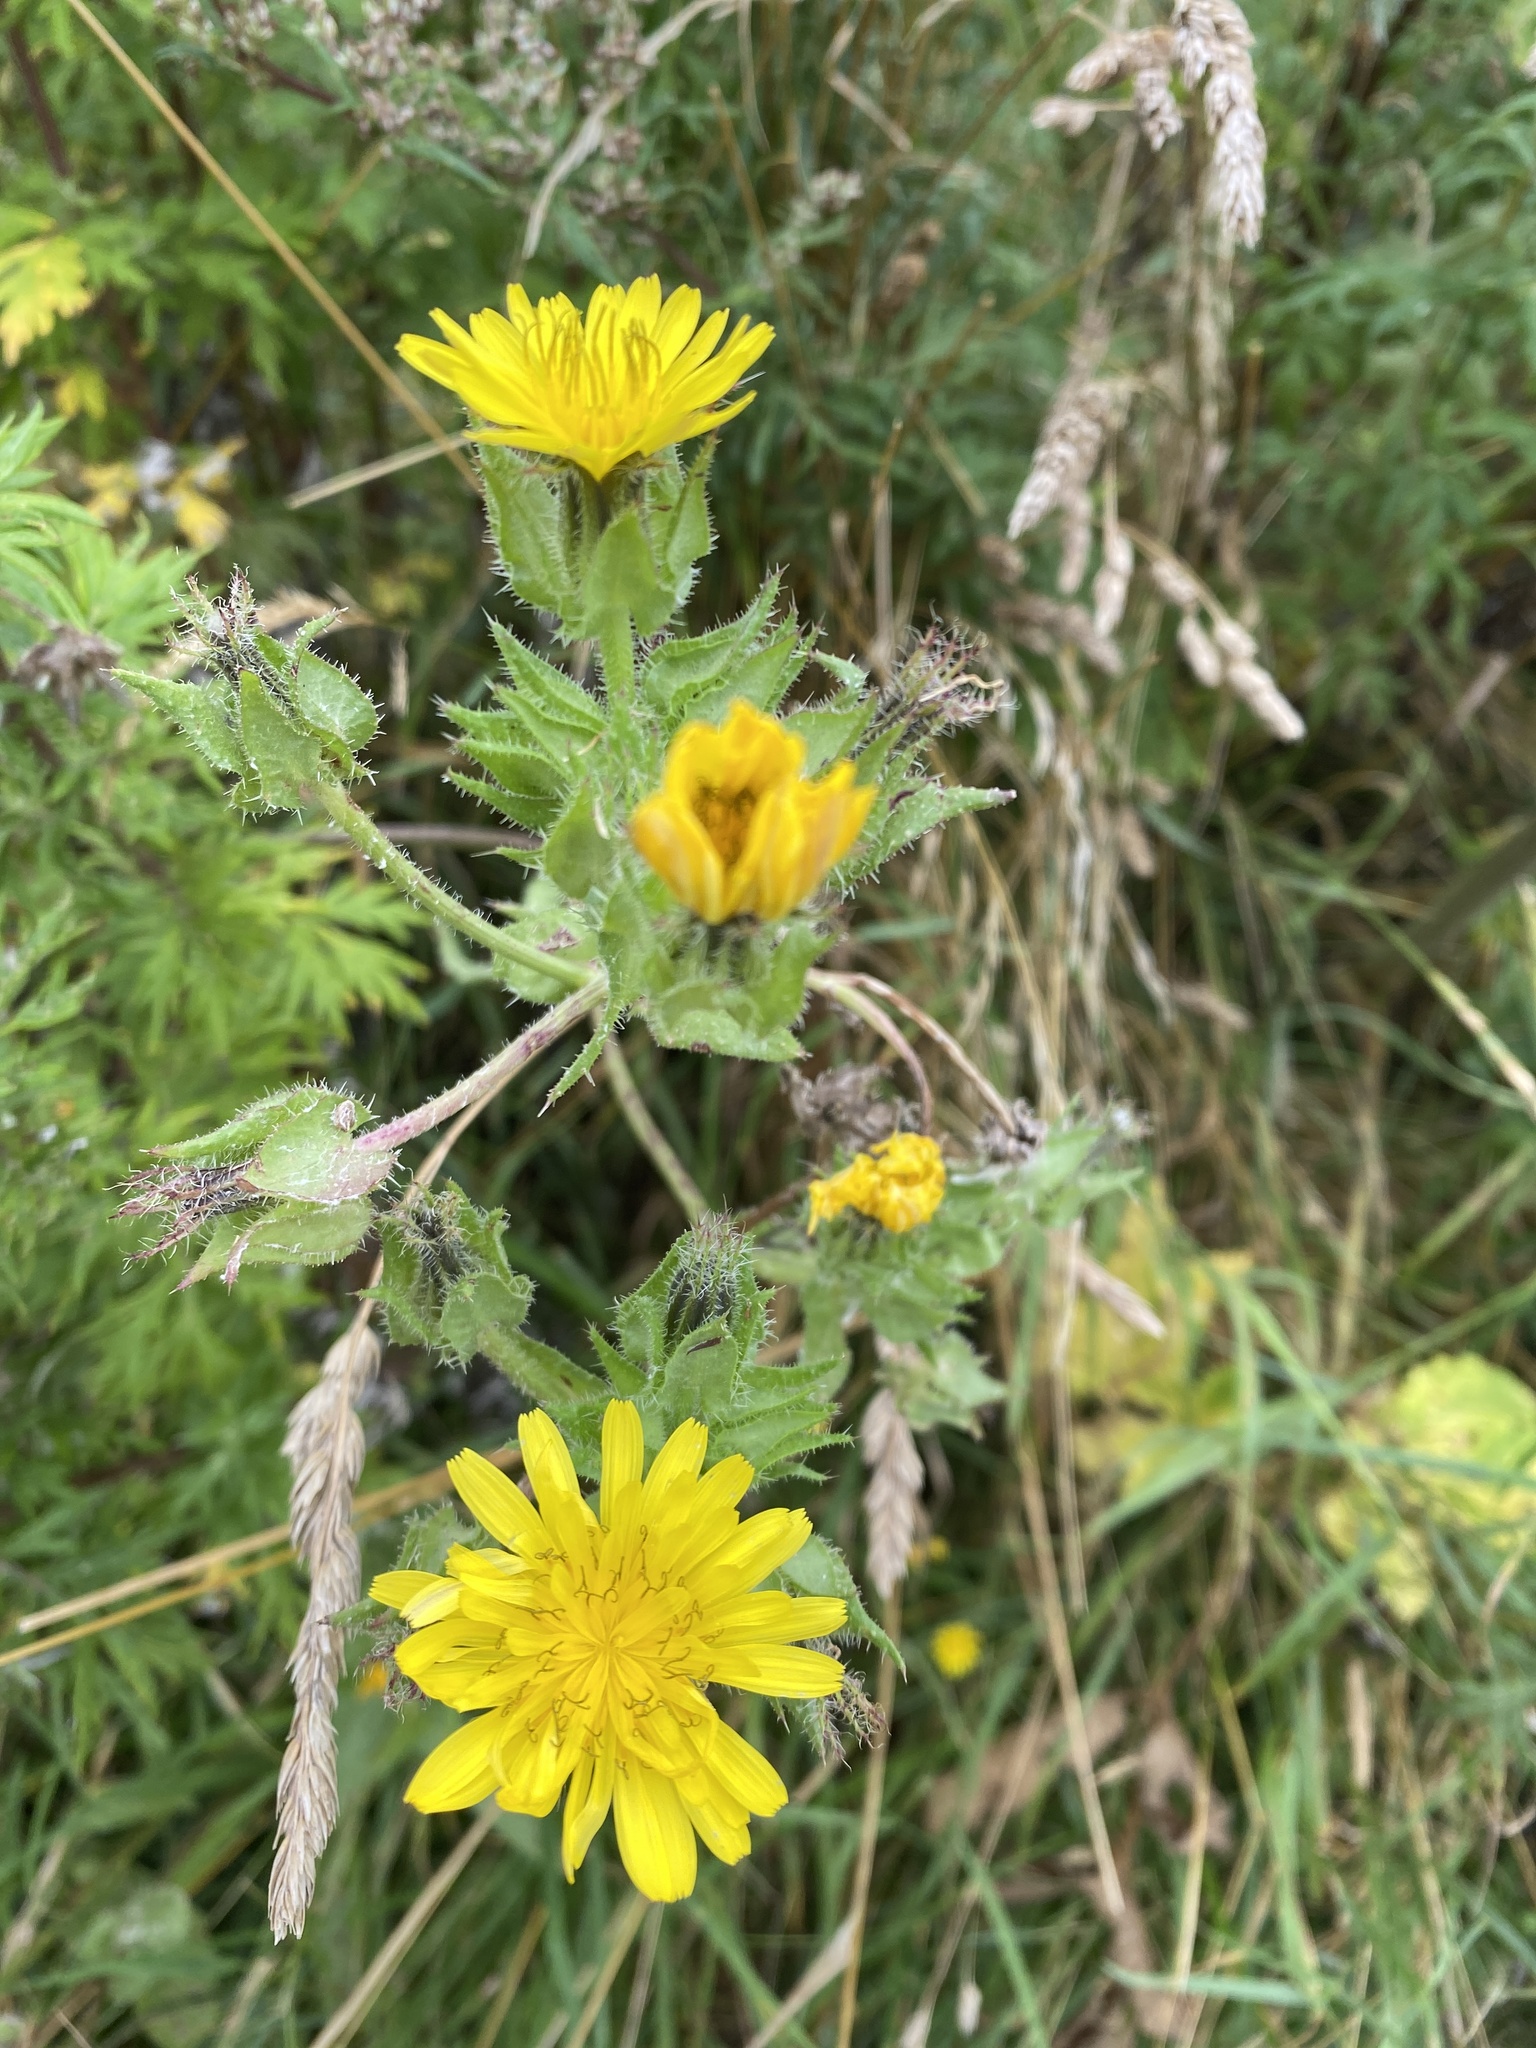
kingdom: Plantae
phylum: Tracheophyta
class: Magnoliopsida
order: Asterales
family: Asteraceae
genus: Helminthotheca
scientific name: Helminthotheca echioides
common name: Ox-tongue
